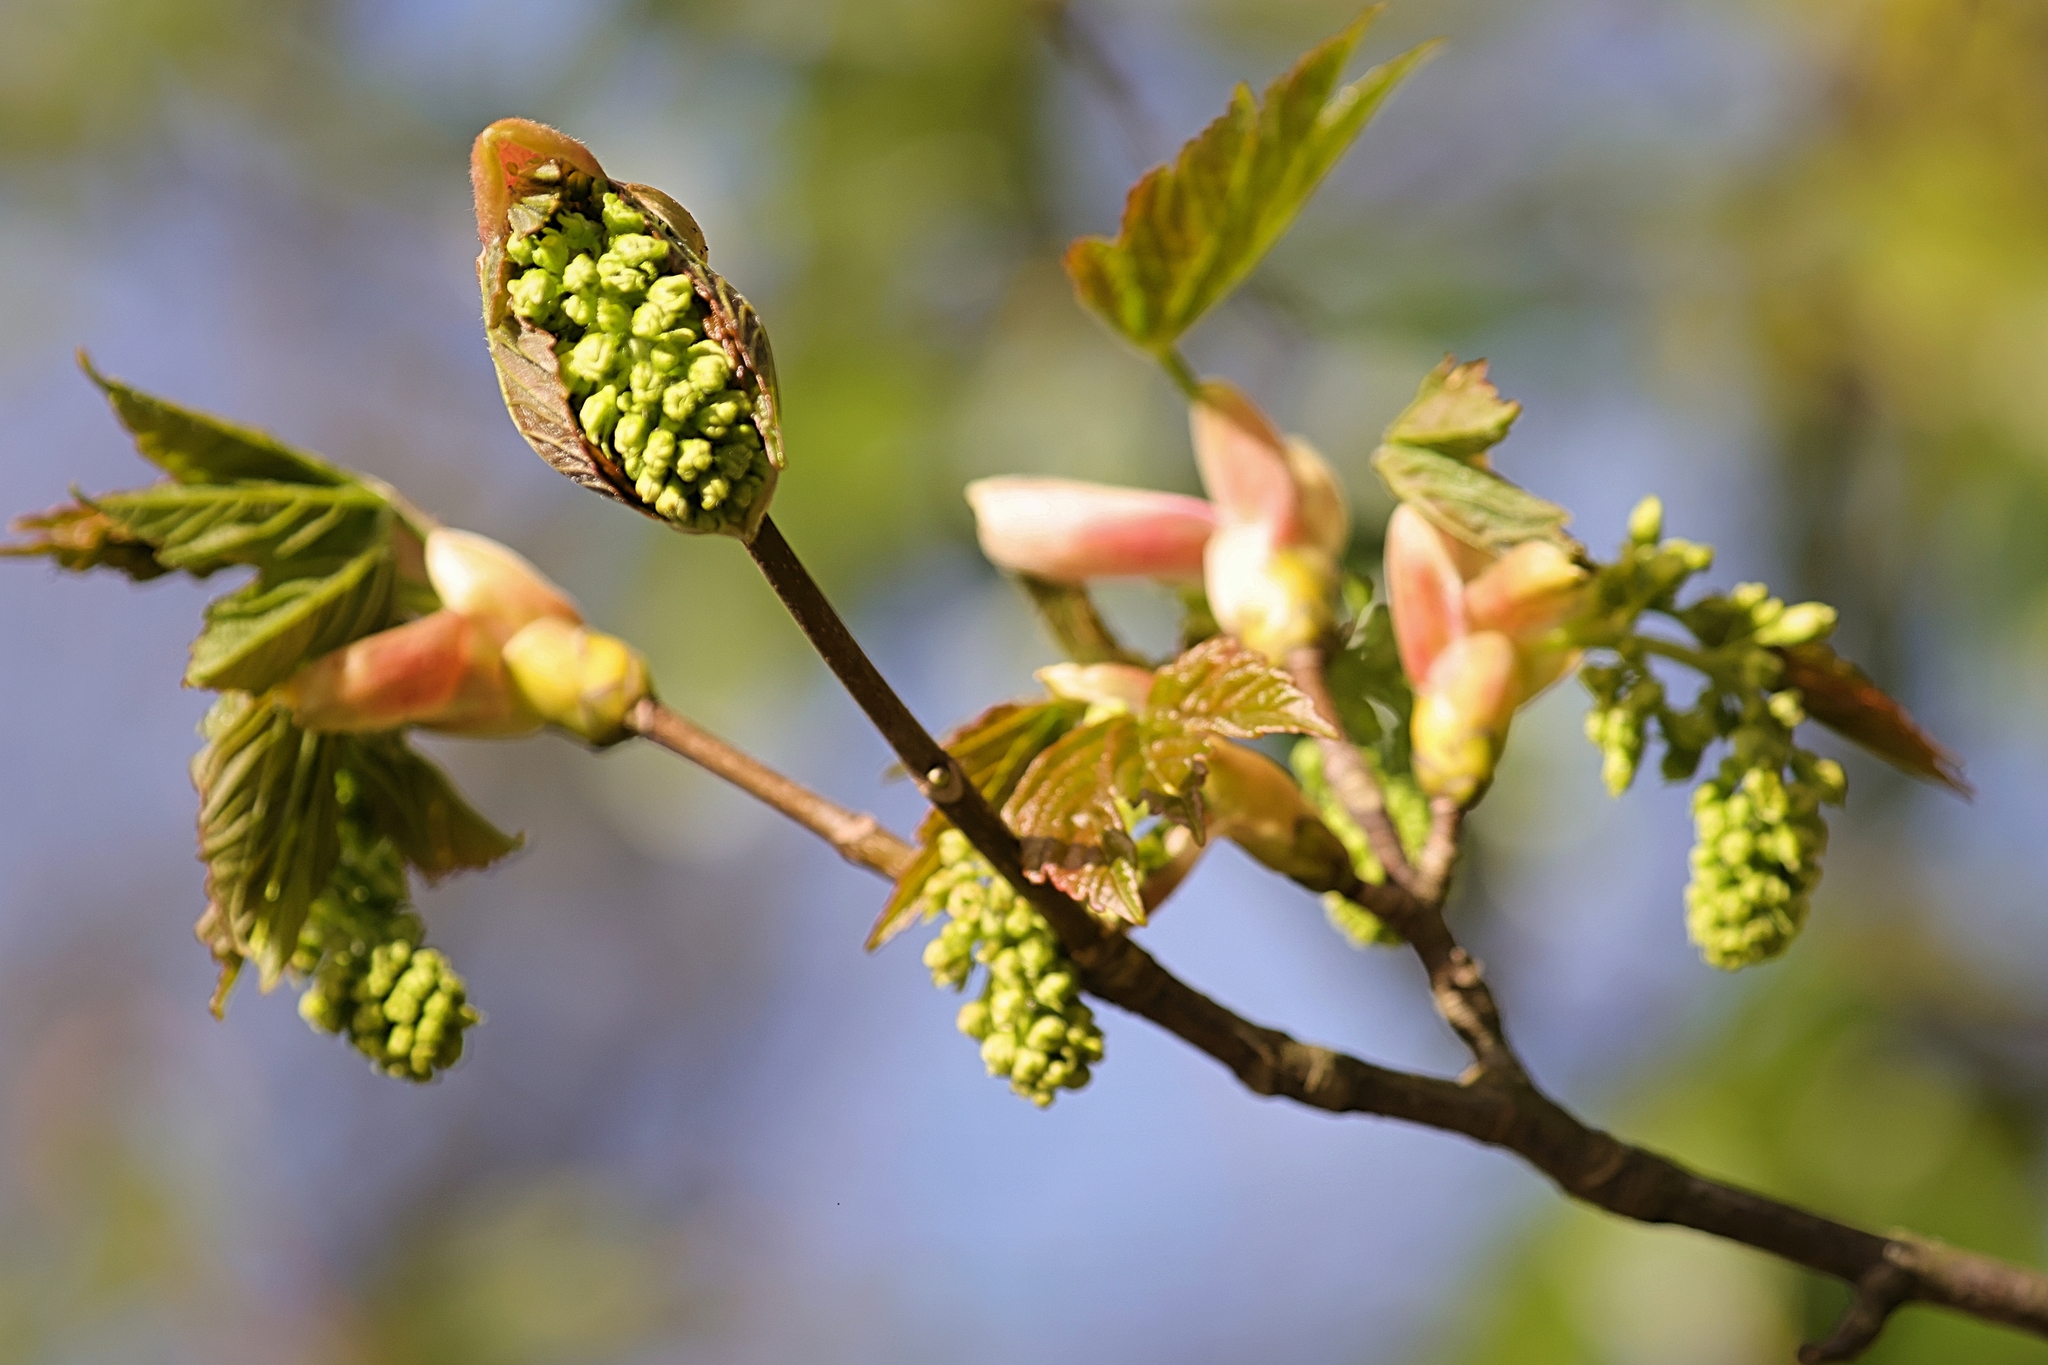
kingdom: Plantae
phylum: Tracheophyta
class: Magnoliopsida
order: Sapindales
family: Sapindaceae
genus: Acer
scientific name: Acer pseudoplatanus
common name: Sycamore
